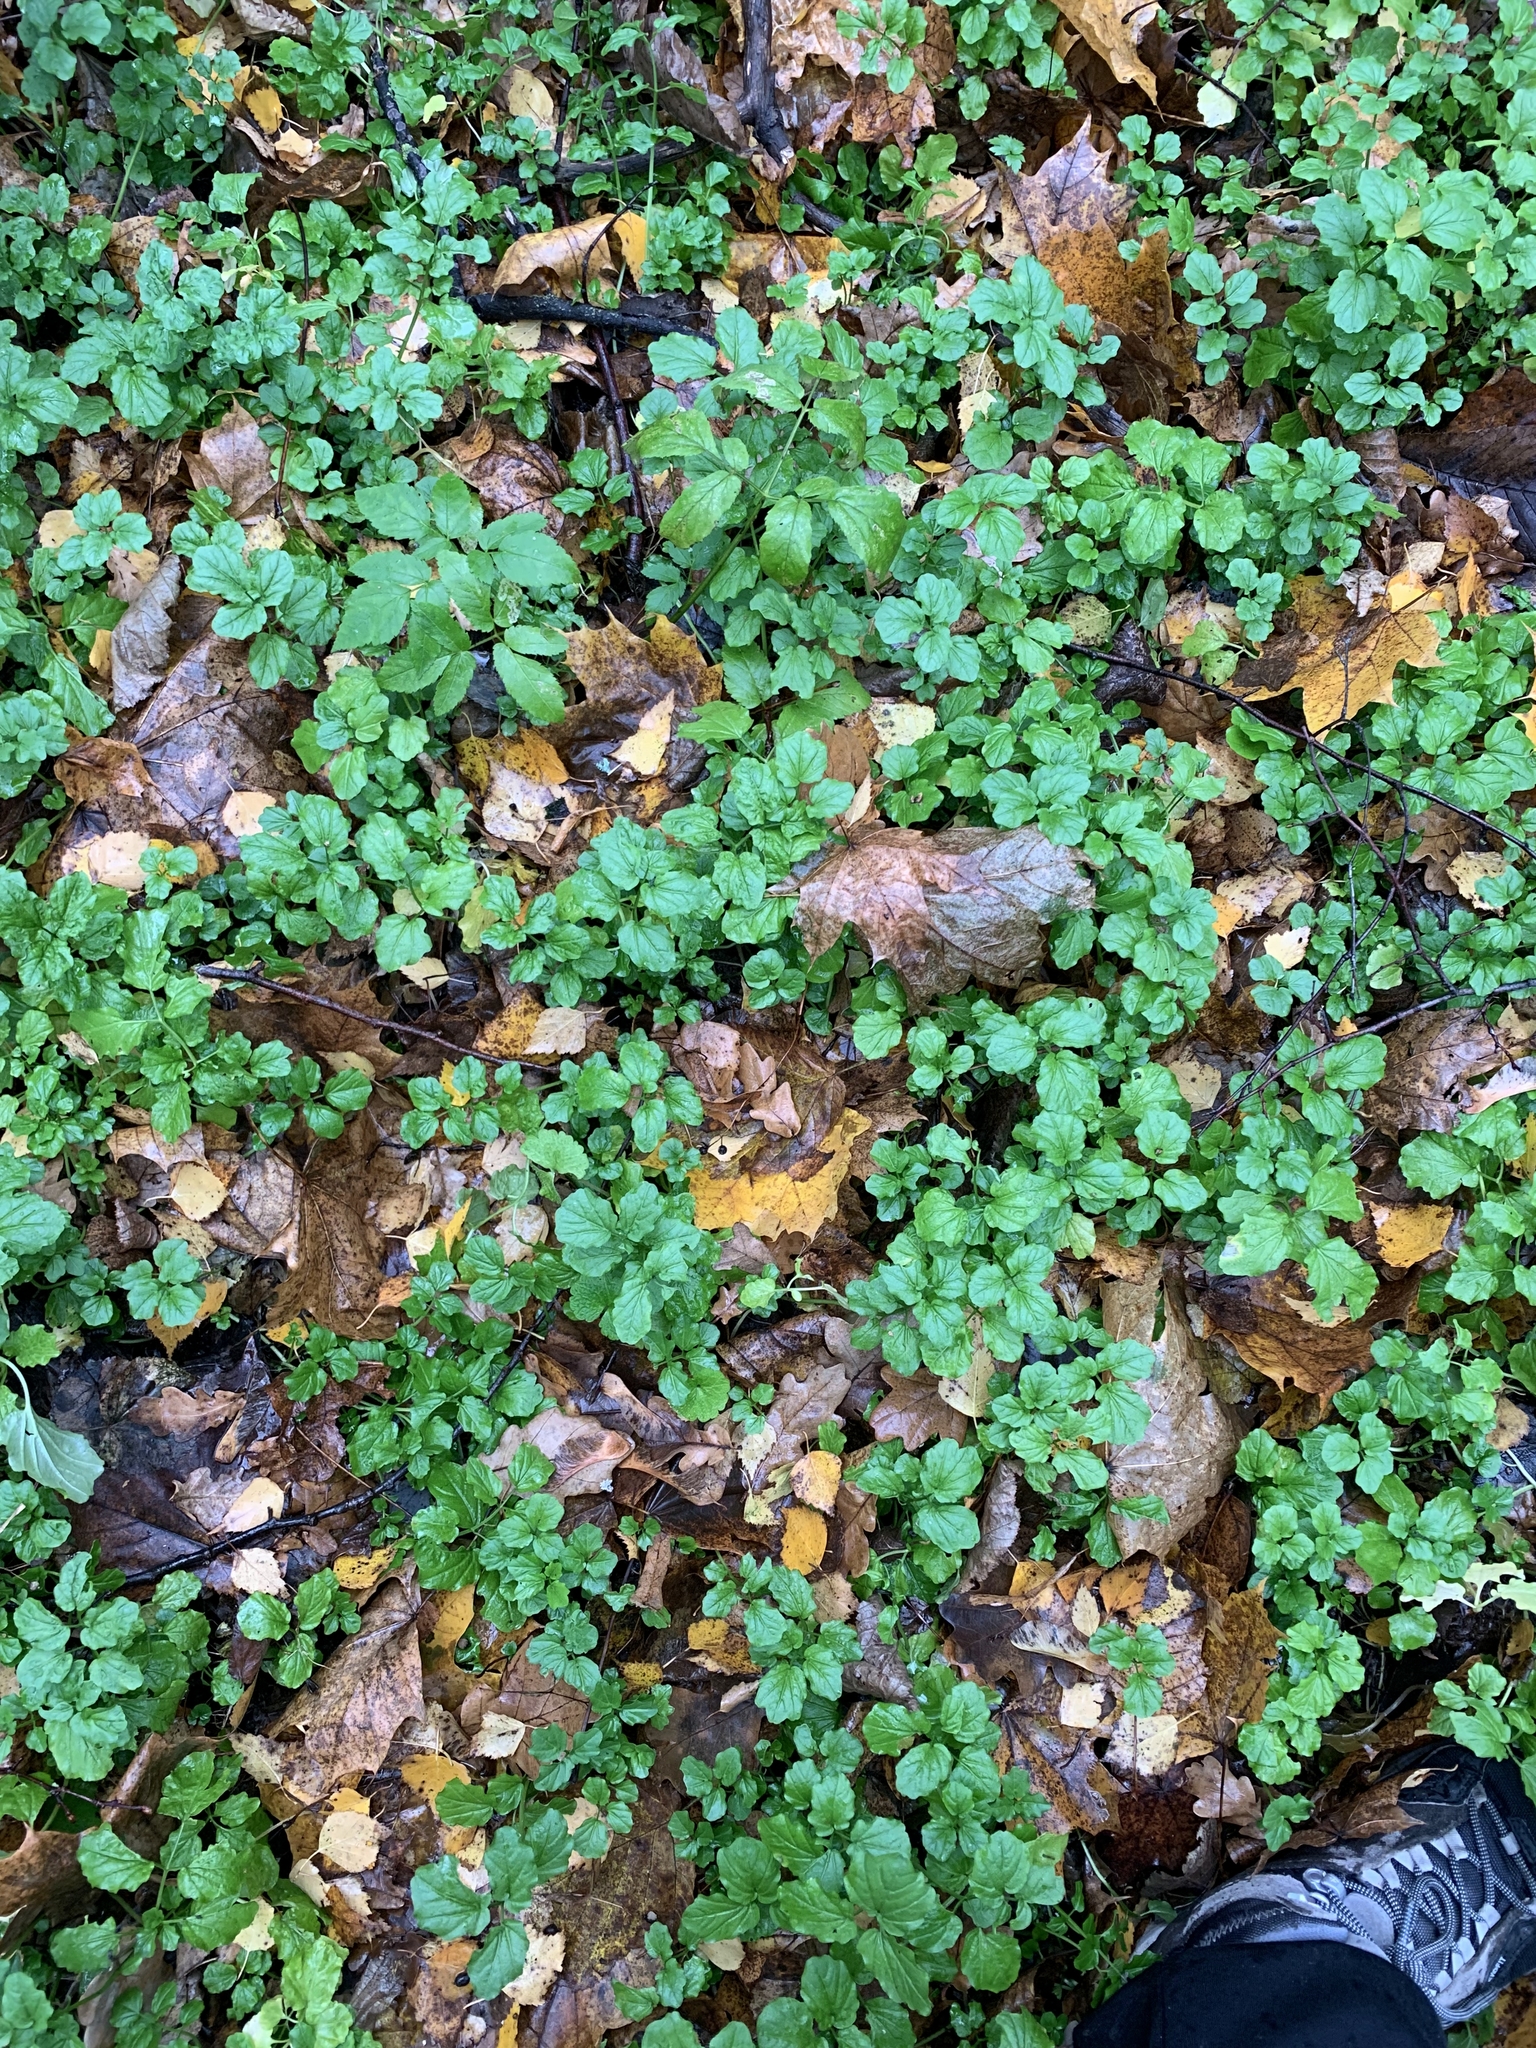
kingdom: Plantae
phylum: Tracheophyta
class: Magnoliopsida
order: Brassicales
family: Brassicaceae
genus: Cardamine
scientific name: Cardamine amara
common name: Large bitter-cress
